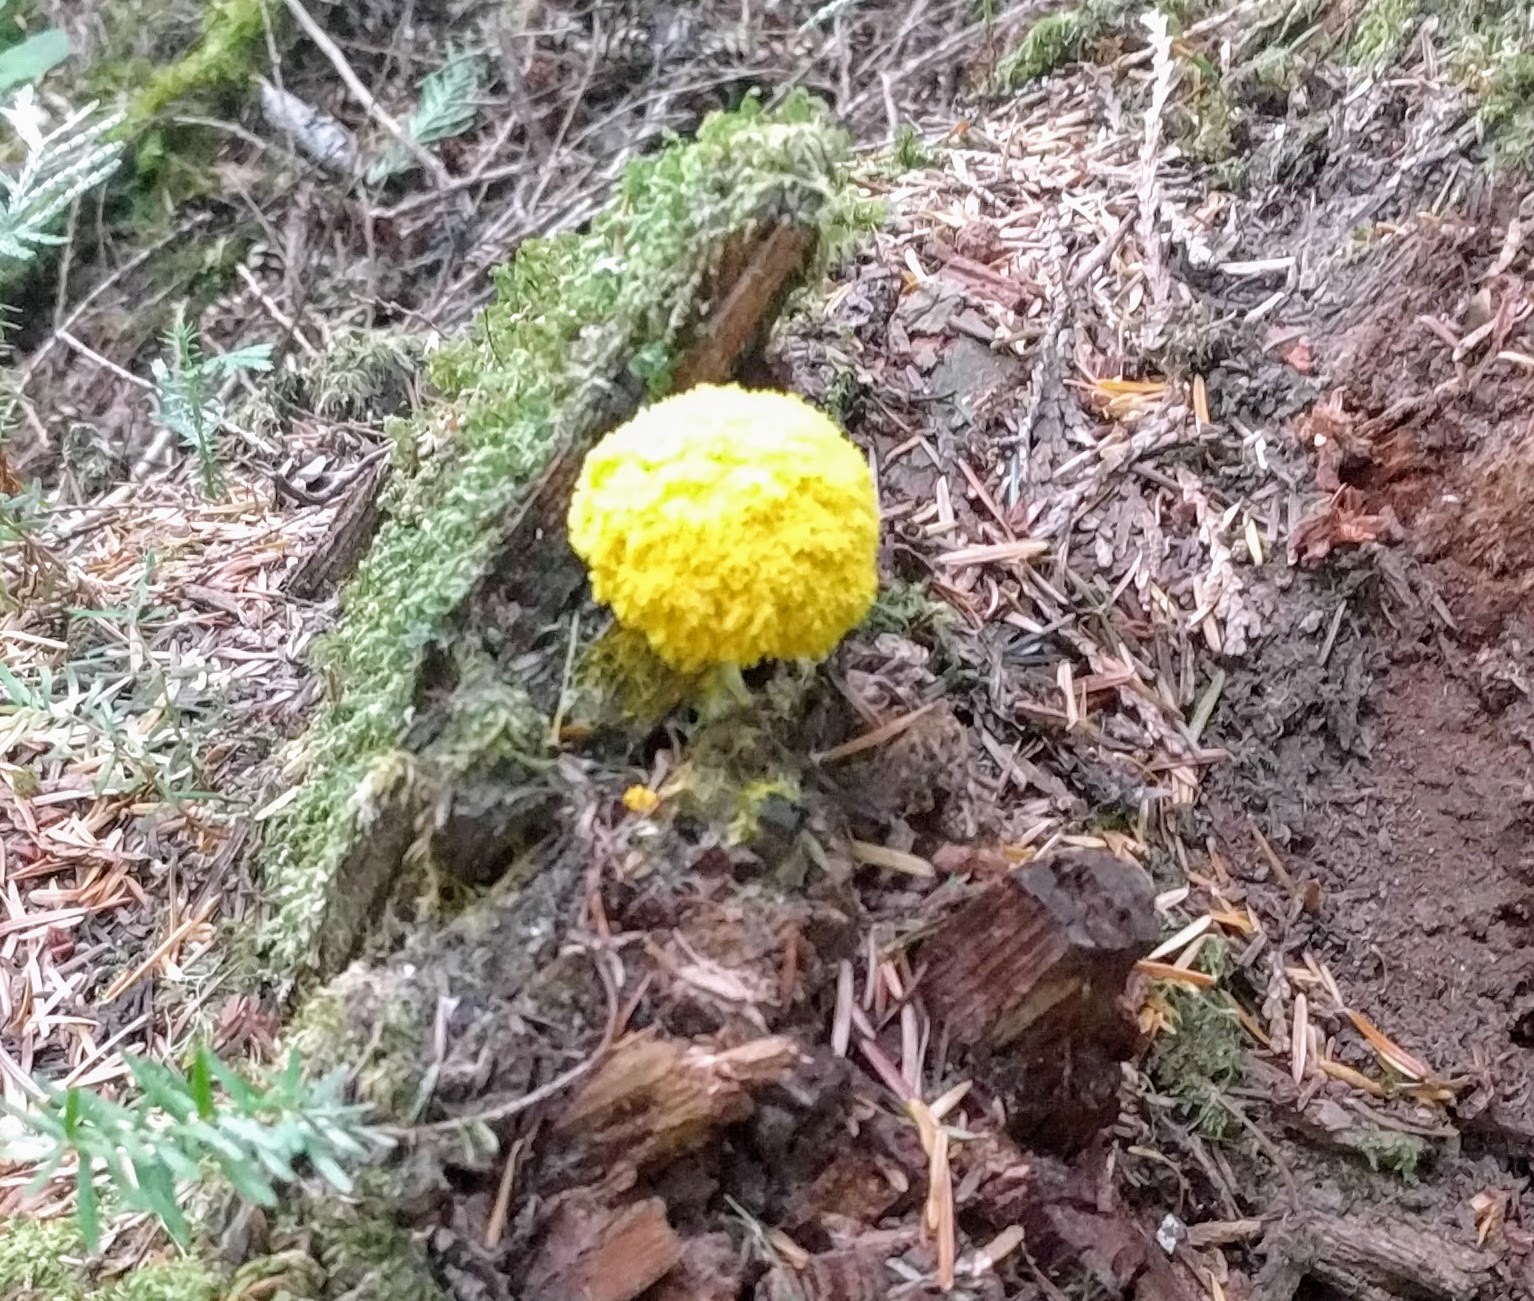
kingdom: Protozoa
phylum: Mycetozoa
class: Myxomycetes
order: Physarales
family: Physaraceae
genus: Fuligo
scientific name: Fuligo septica
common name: Dog vomit slime mold
